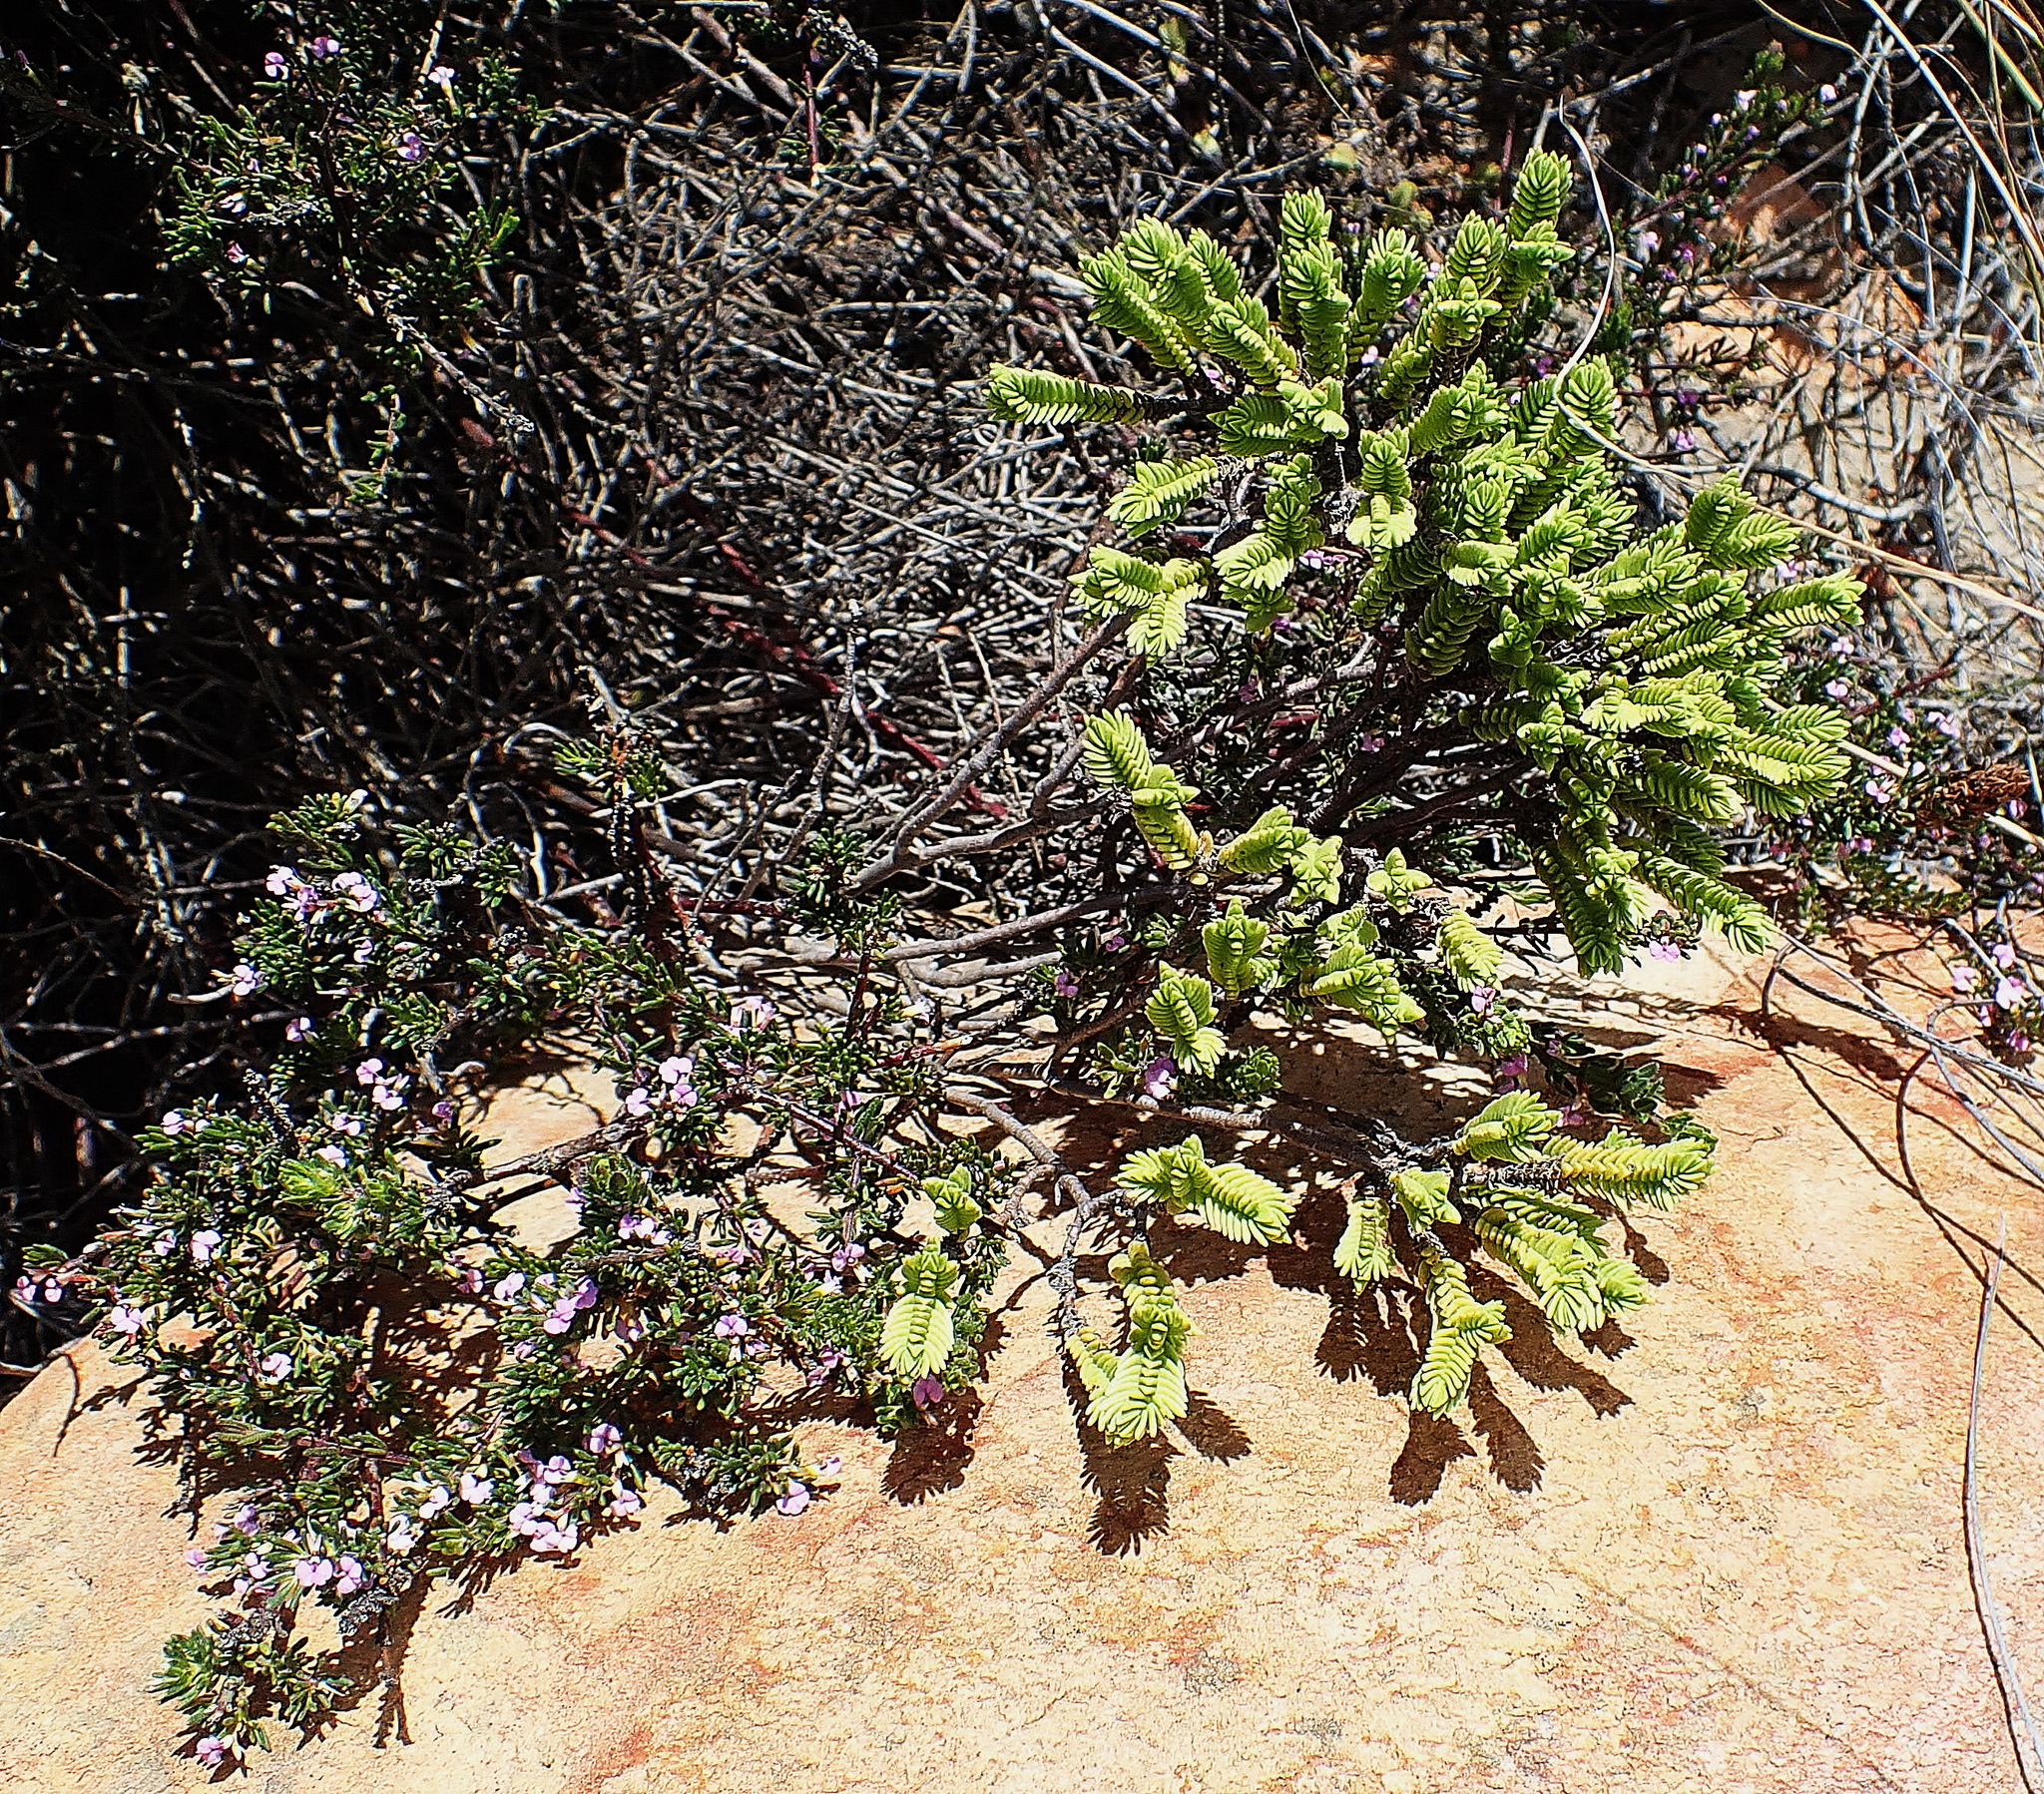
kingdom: Plantae
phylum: Tracheophyta
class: Magnoliopsida
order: Saxifragales
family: Crassulaceae
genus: Crassula
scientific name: Crassula ericoides
